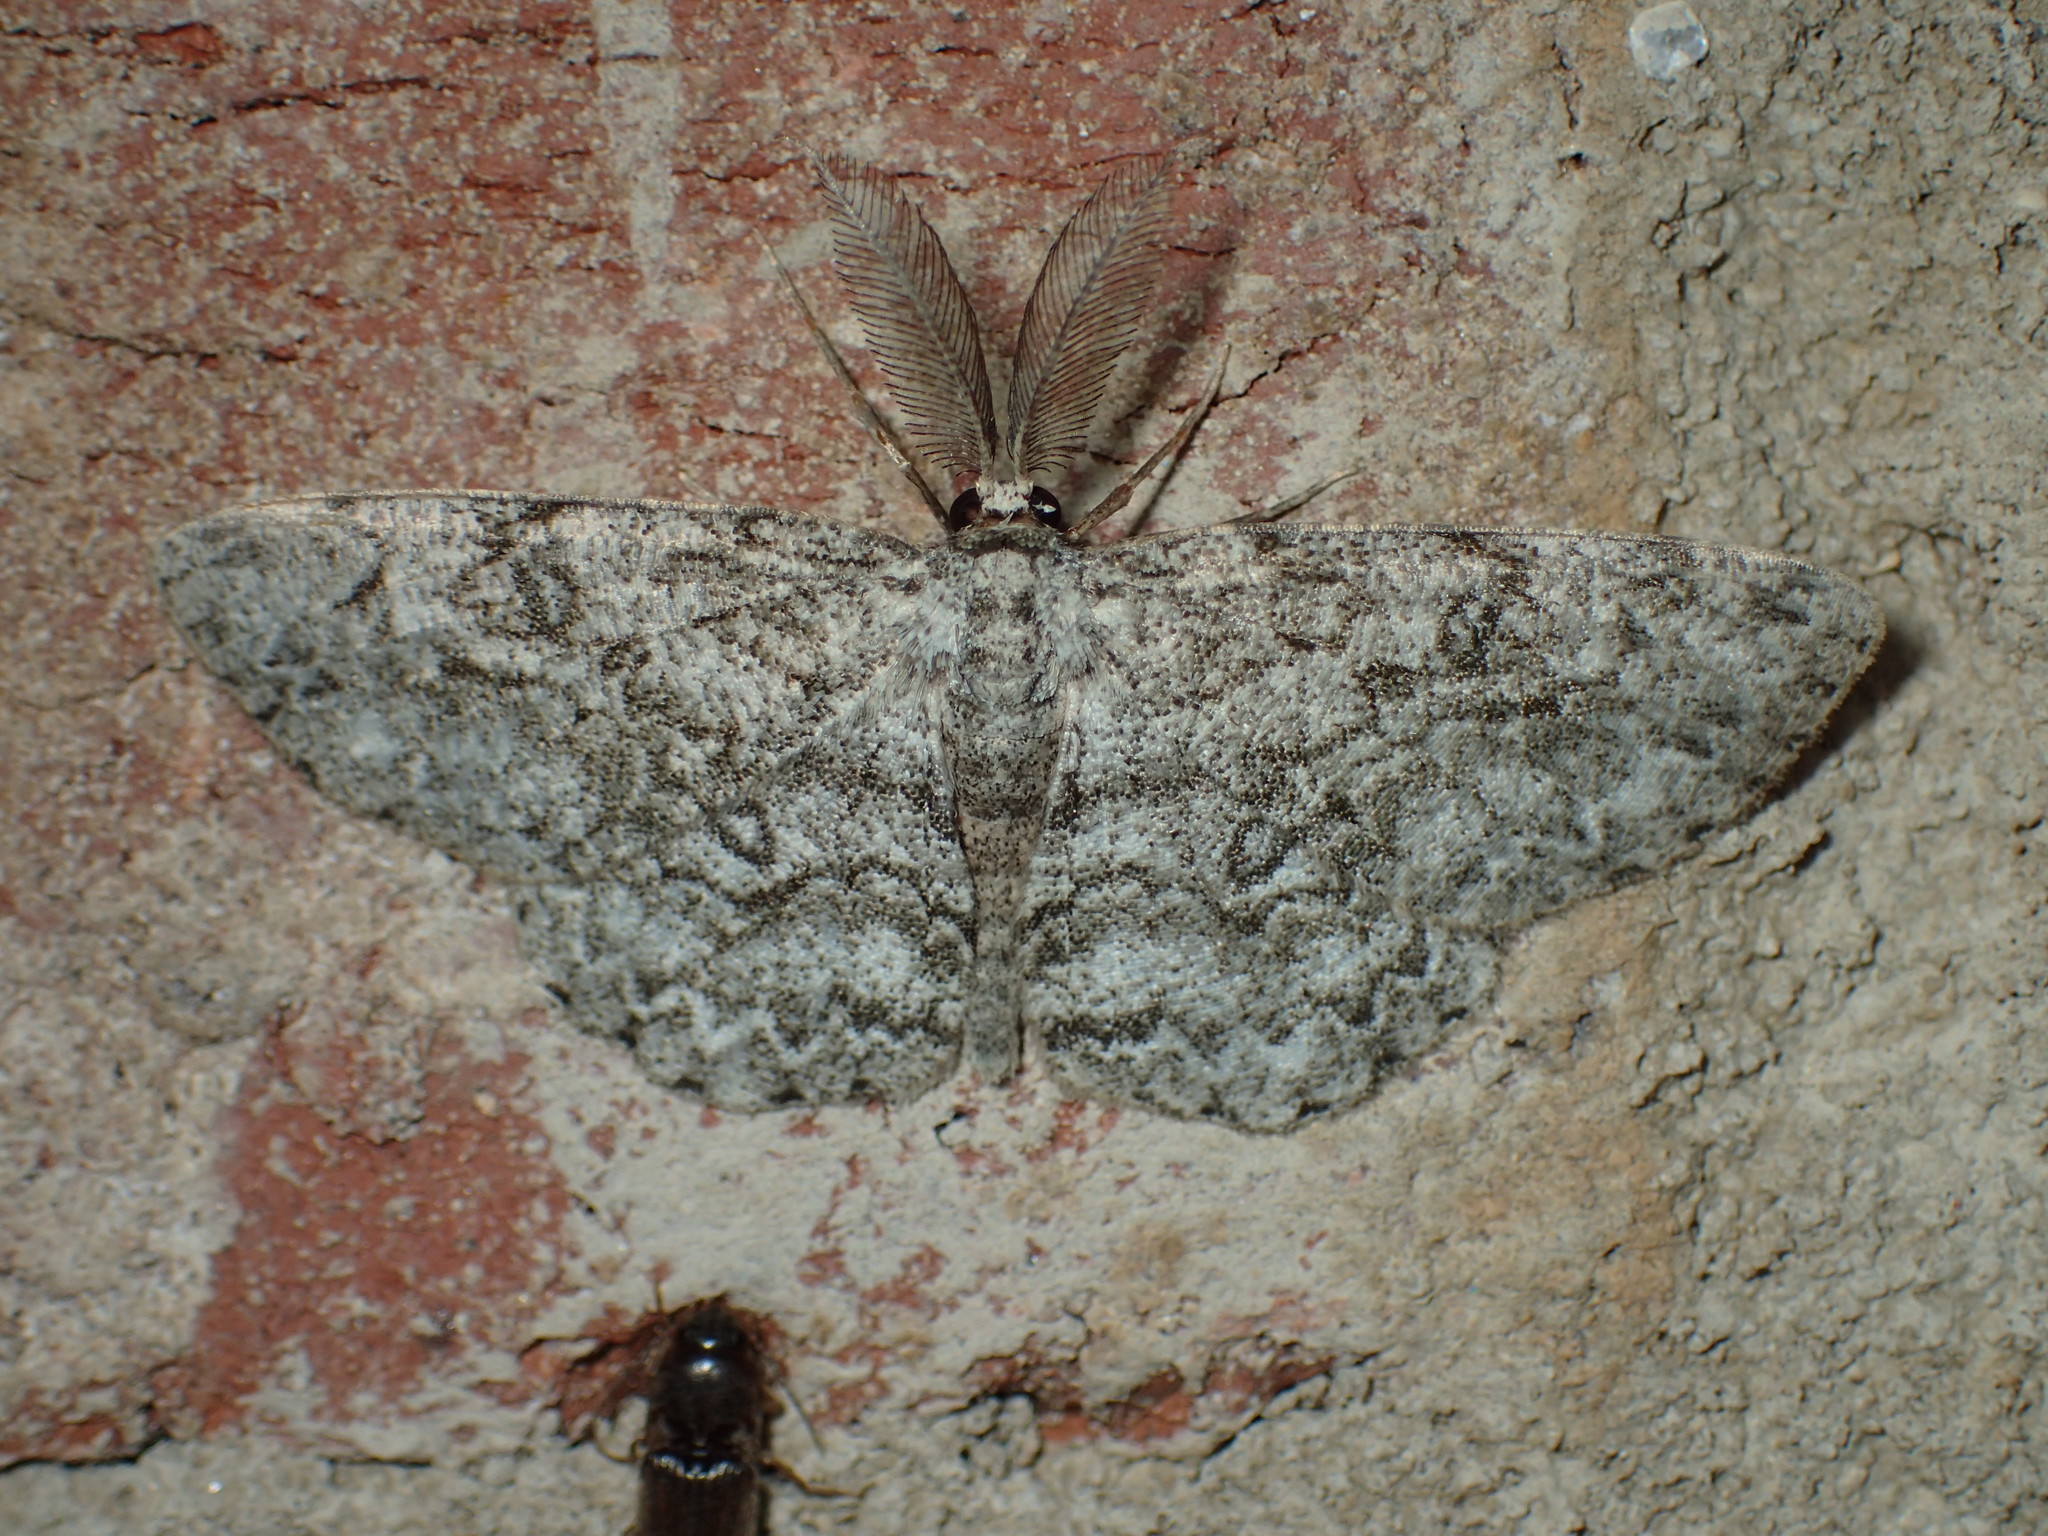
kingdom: Animalia
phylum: Arthropoda
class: Insecta
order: Lepidoptera
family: Geometridae
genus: Hypomecis
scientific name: Hypomecis umbrosaria
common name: Umber moth
